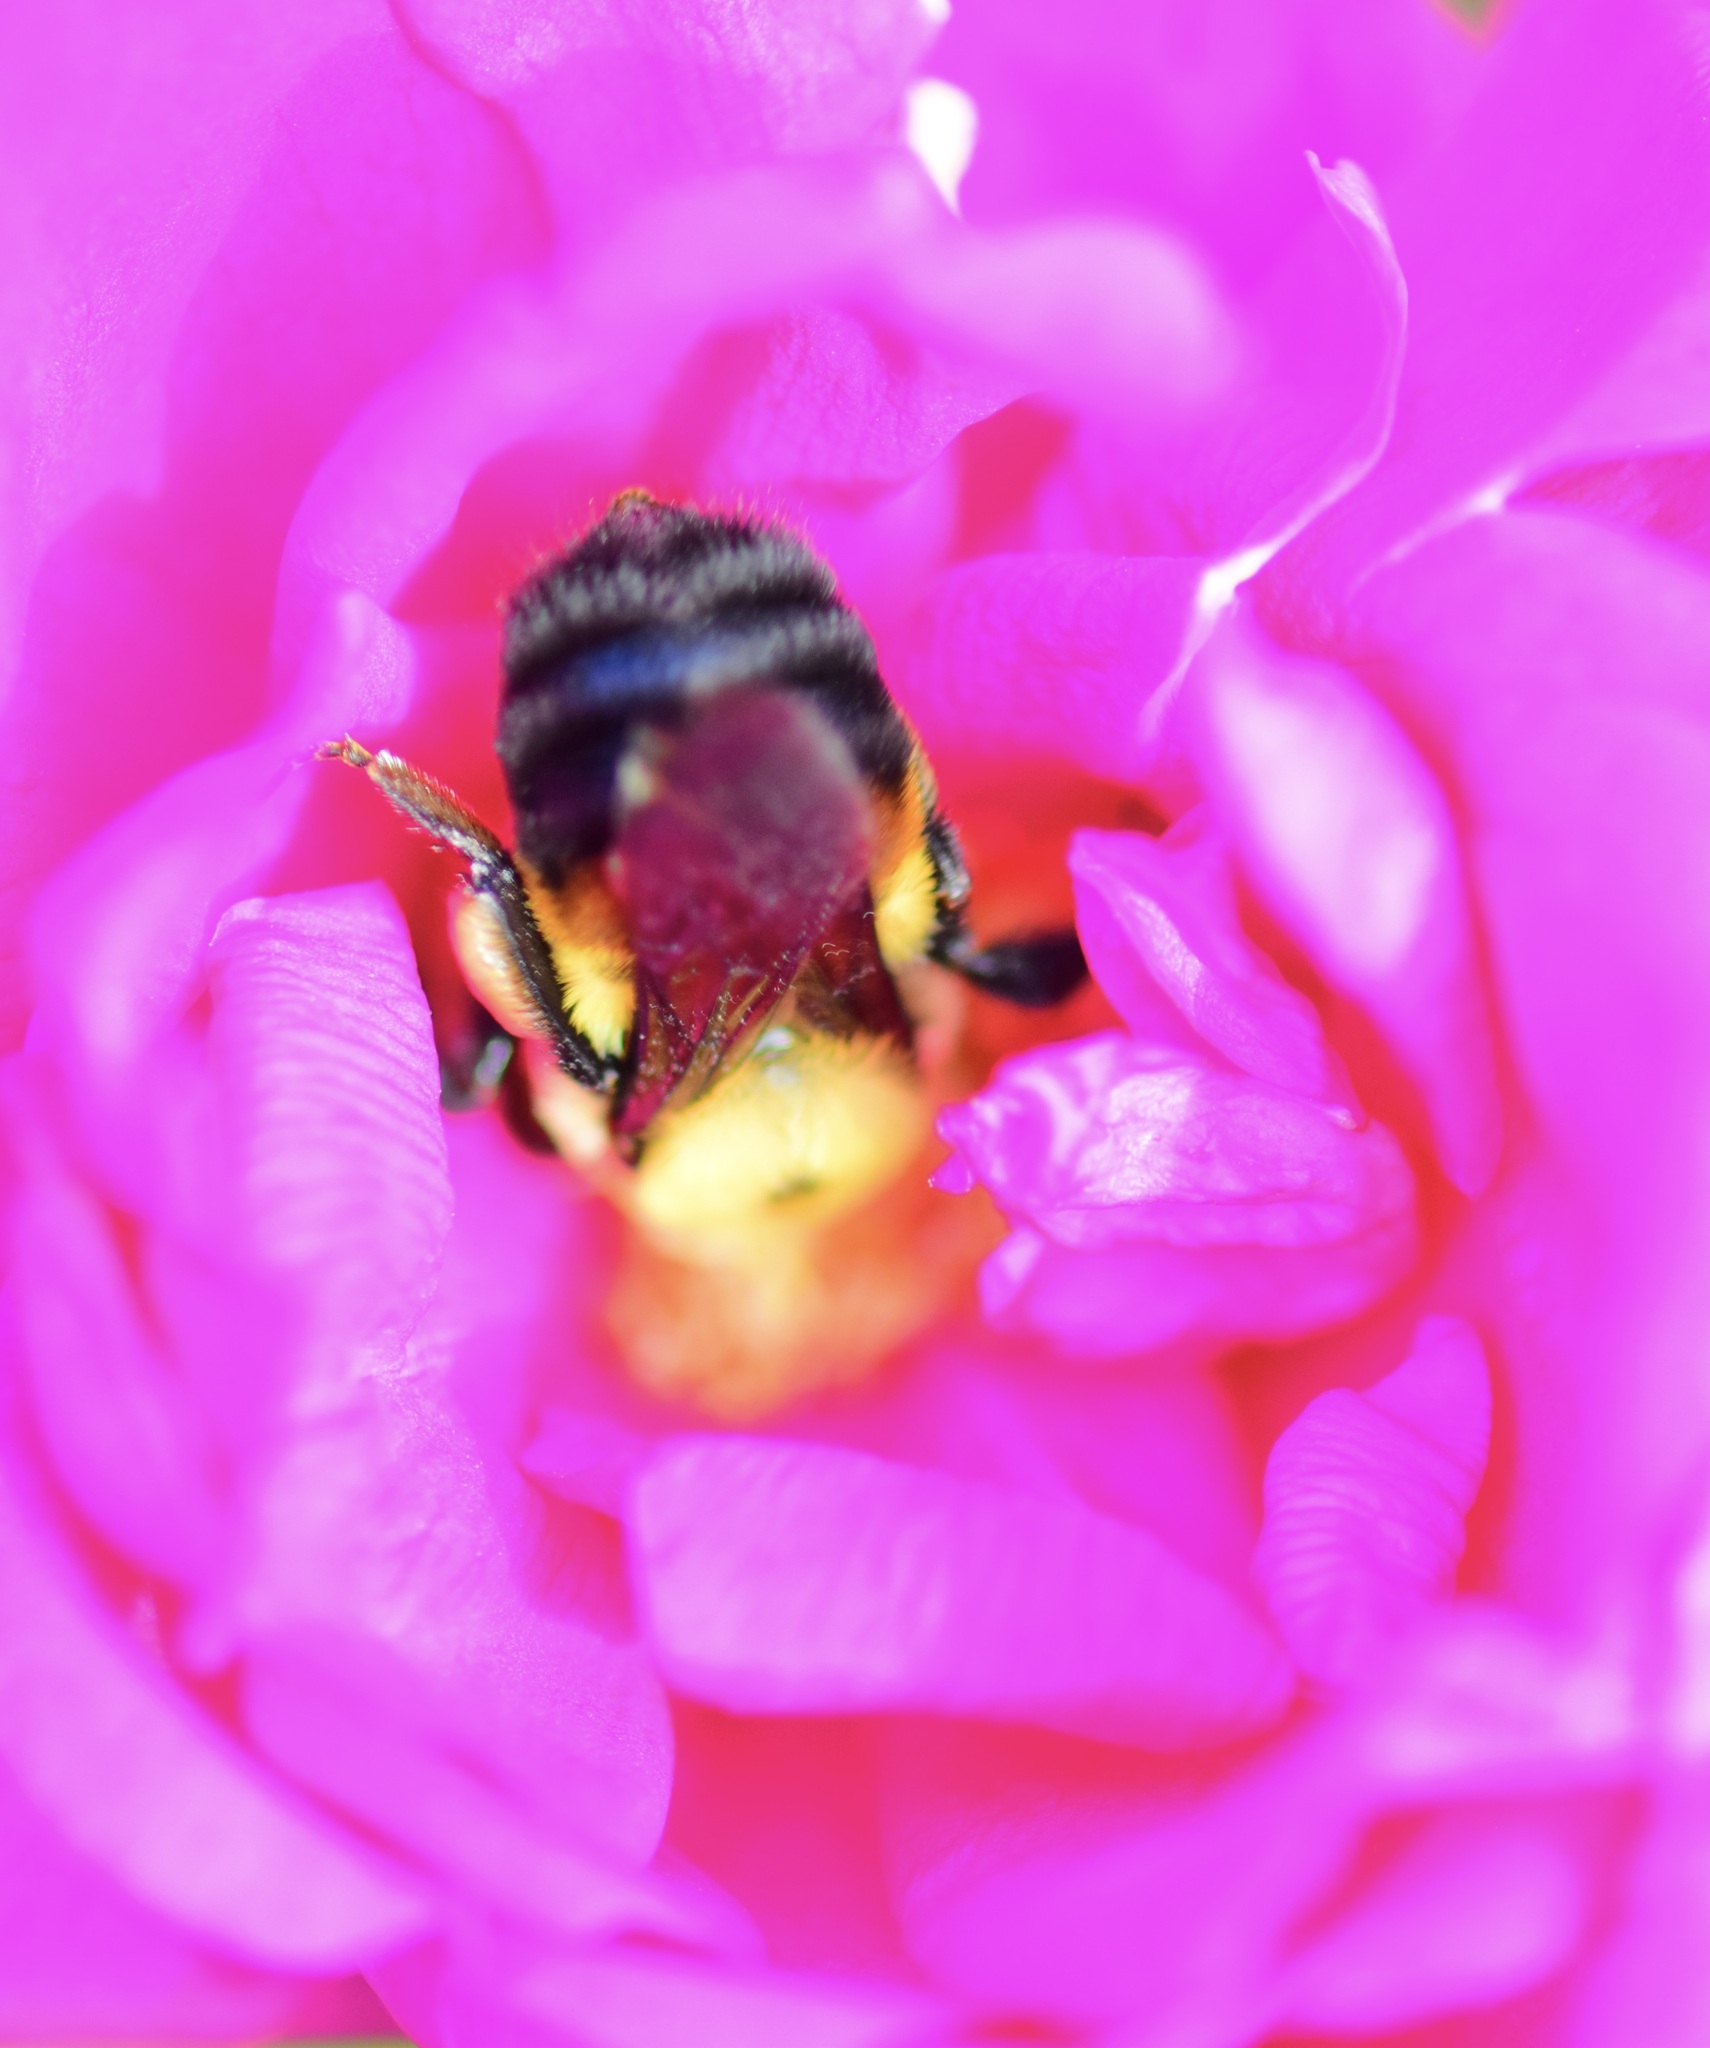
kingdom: Animalia
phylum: Arthropoda
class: Insecta
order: Hymenoptera
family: Apidae
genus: Bombus
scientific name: Bombus griseocollis
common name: Brown-belted bumble bee
